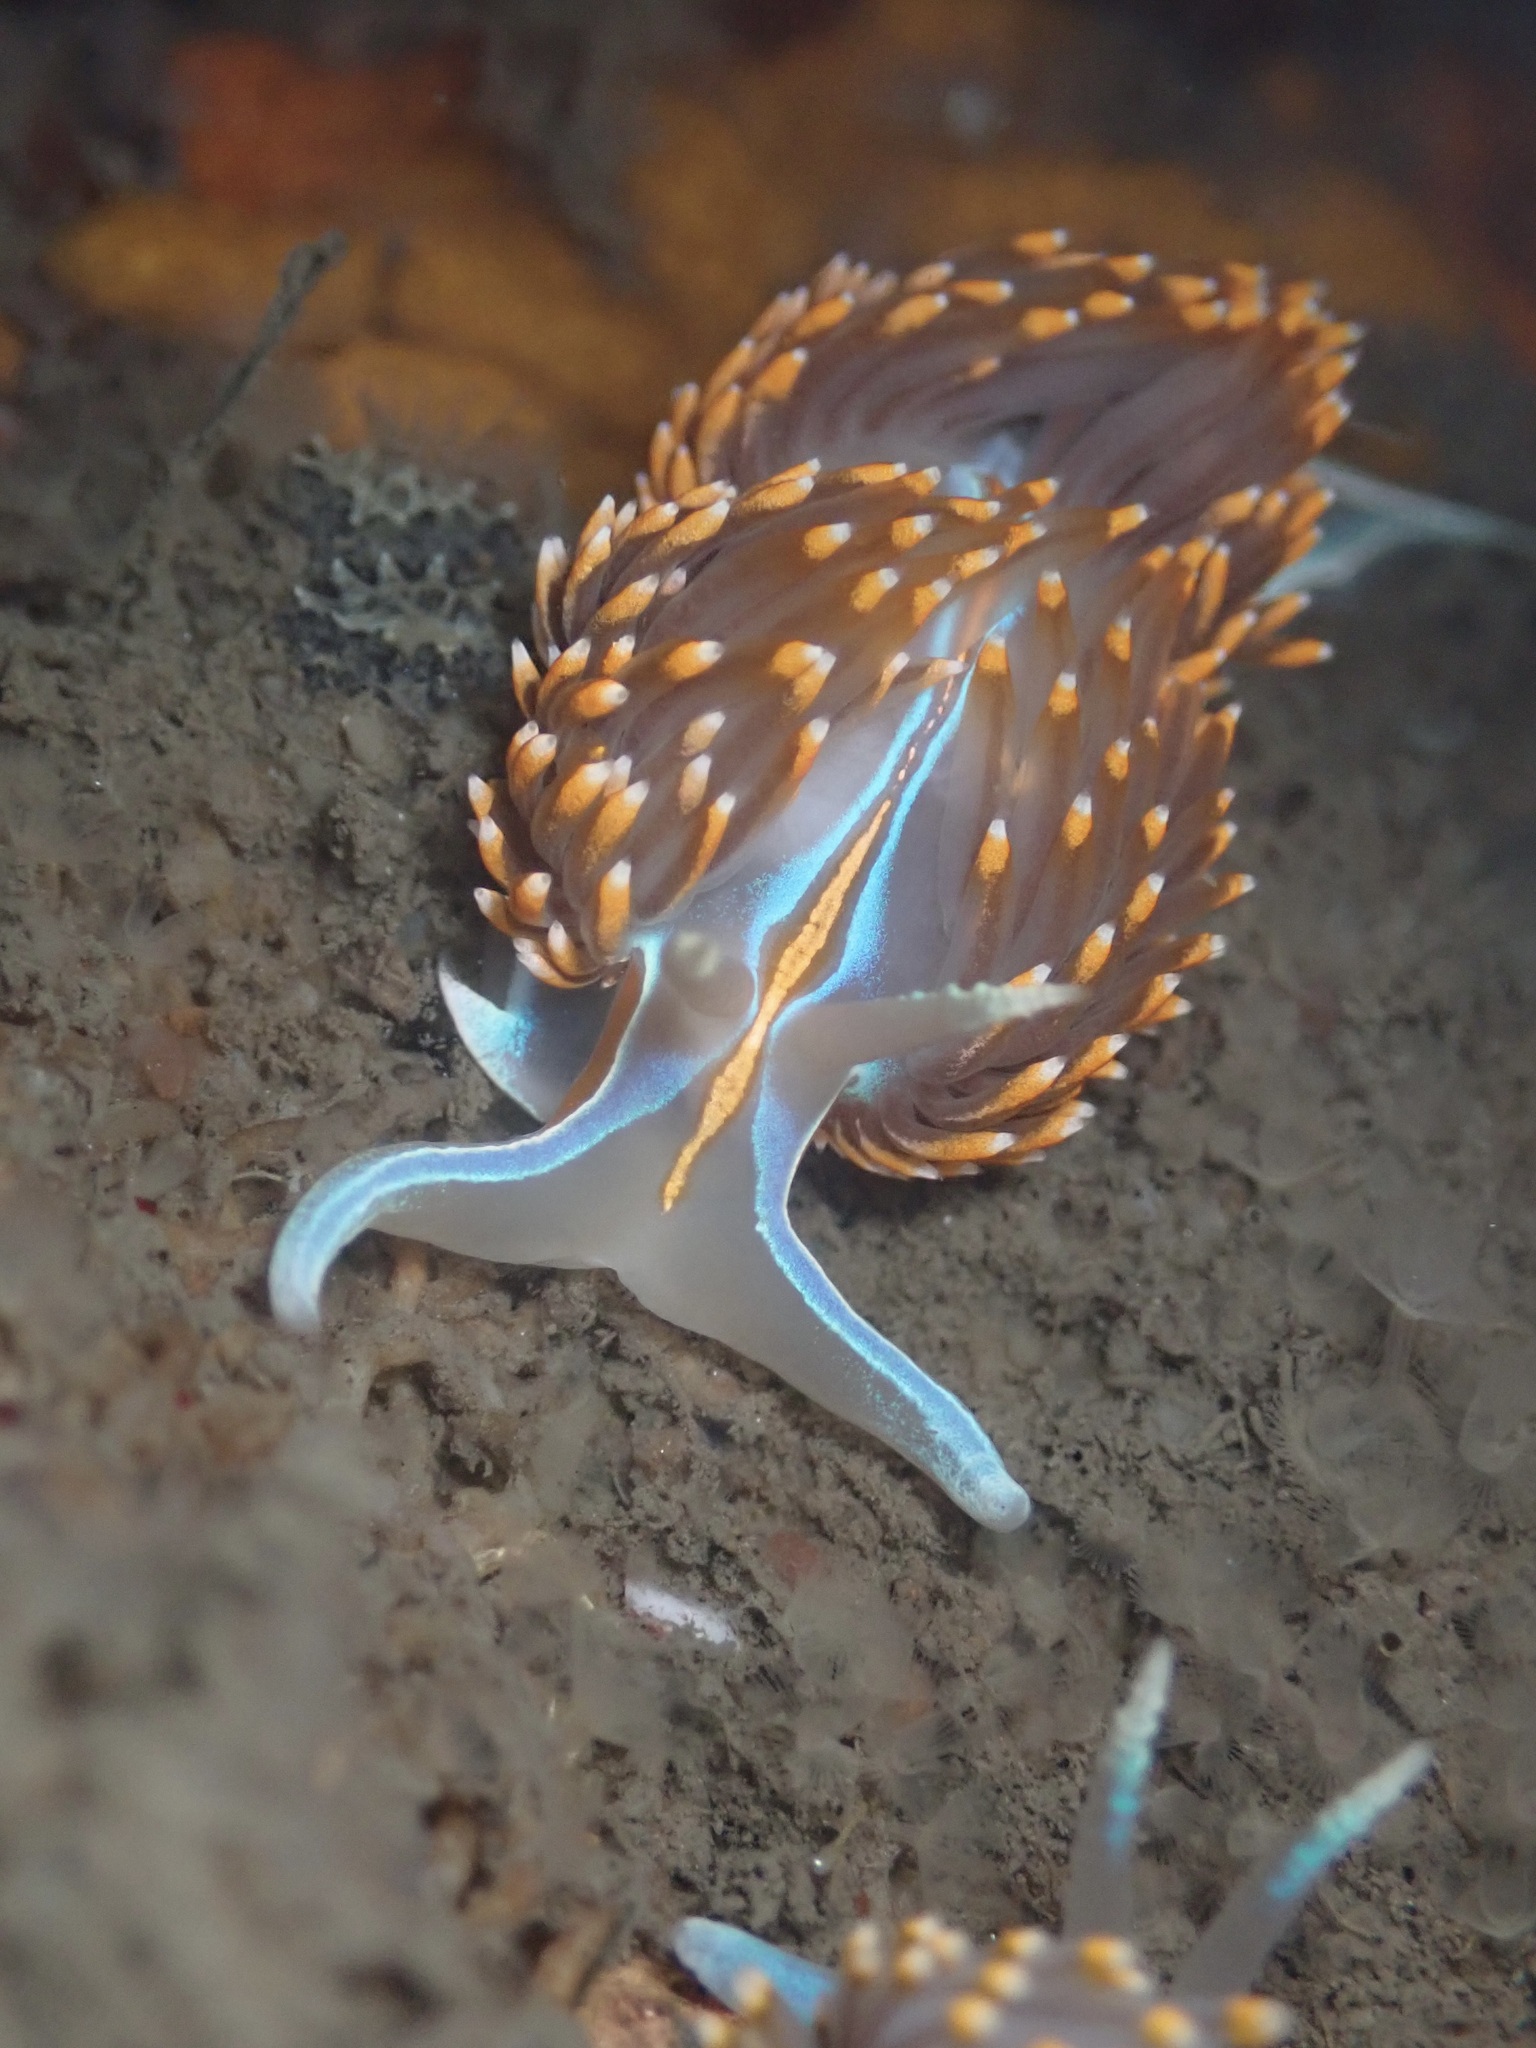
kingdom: Animalia
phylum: Mollusca
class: Gastropoda
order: Nudibranchia
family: Myrrhinidae
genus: Hermissenda
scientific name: Hermissenda opalescens
